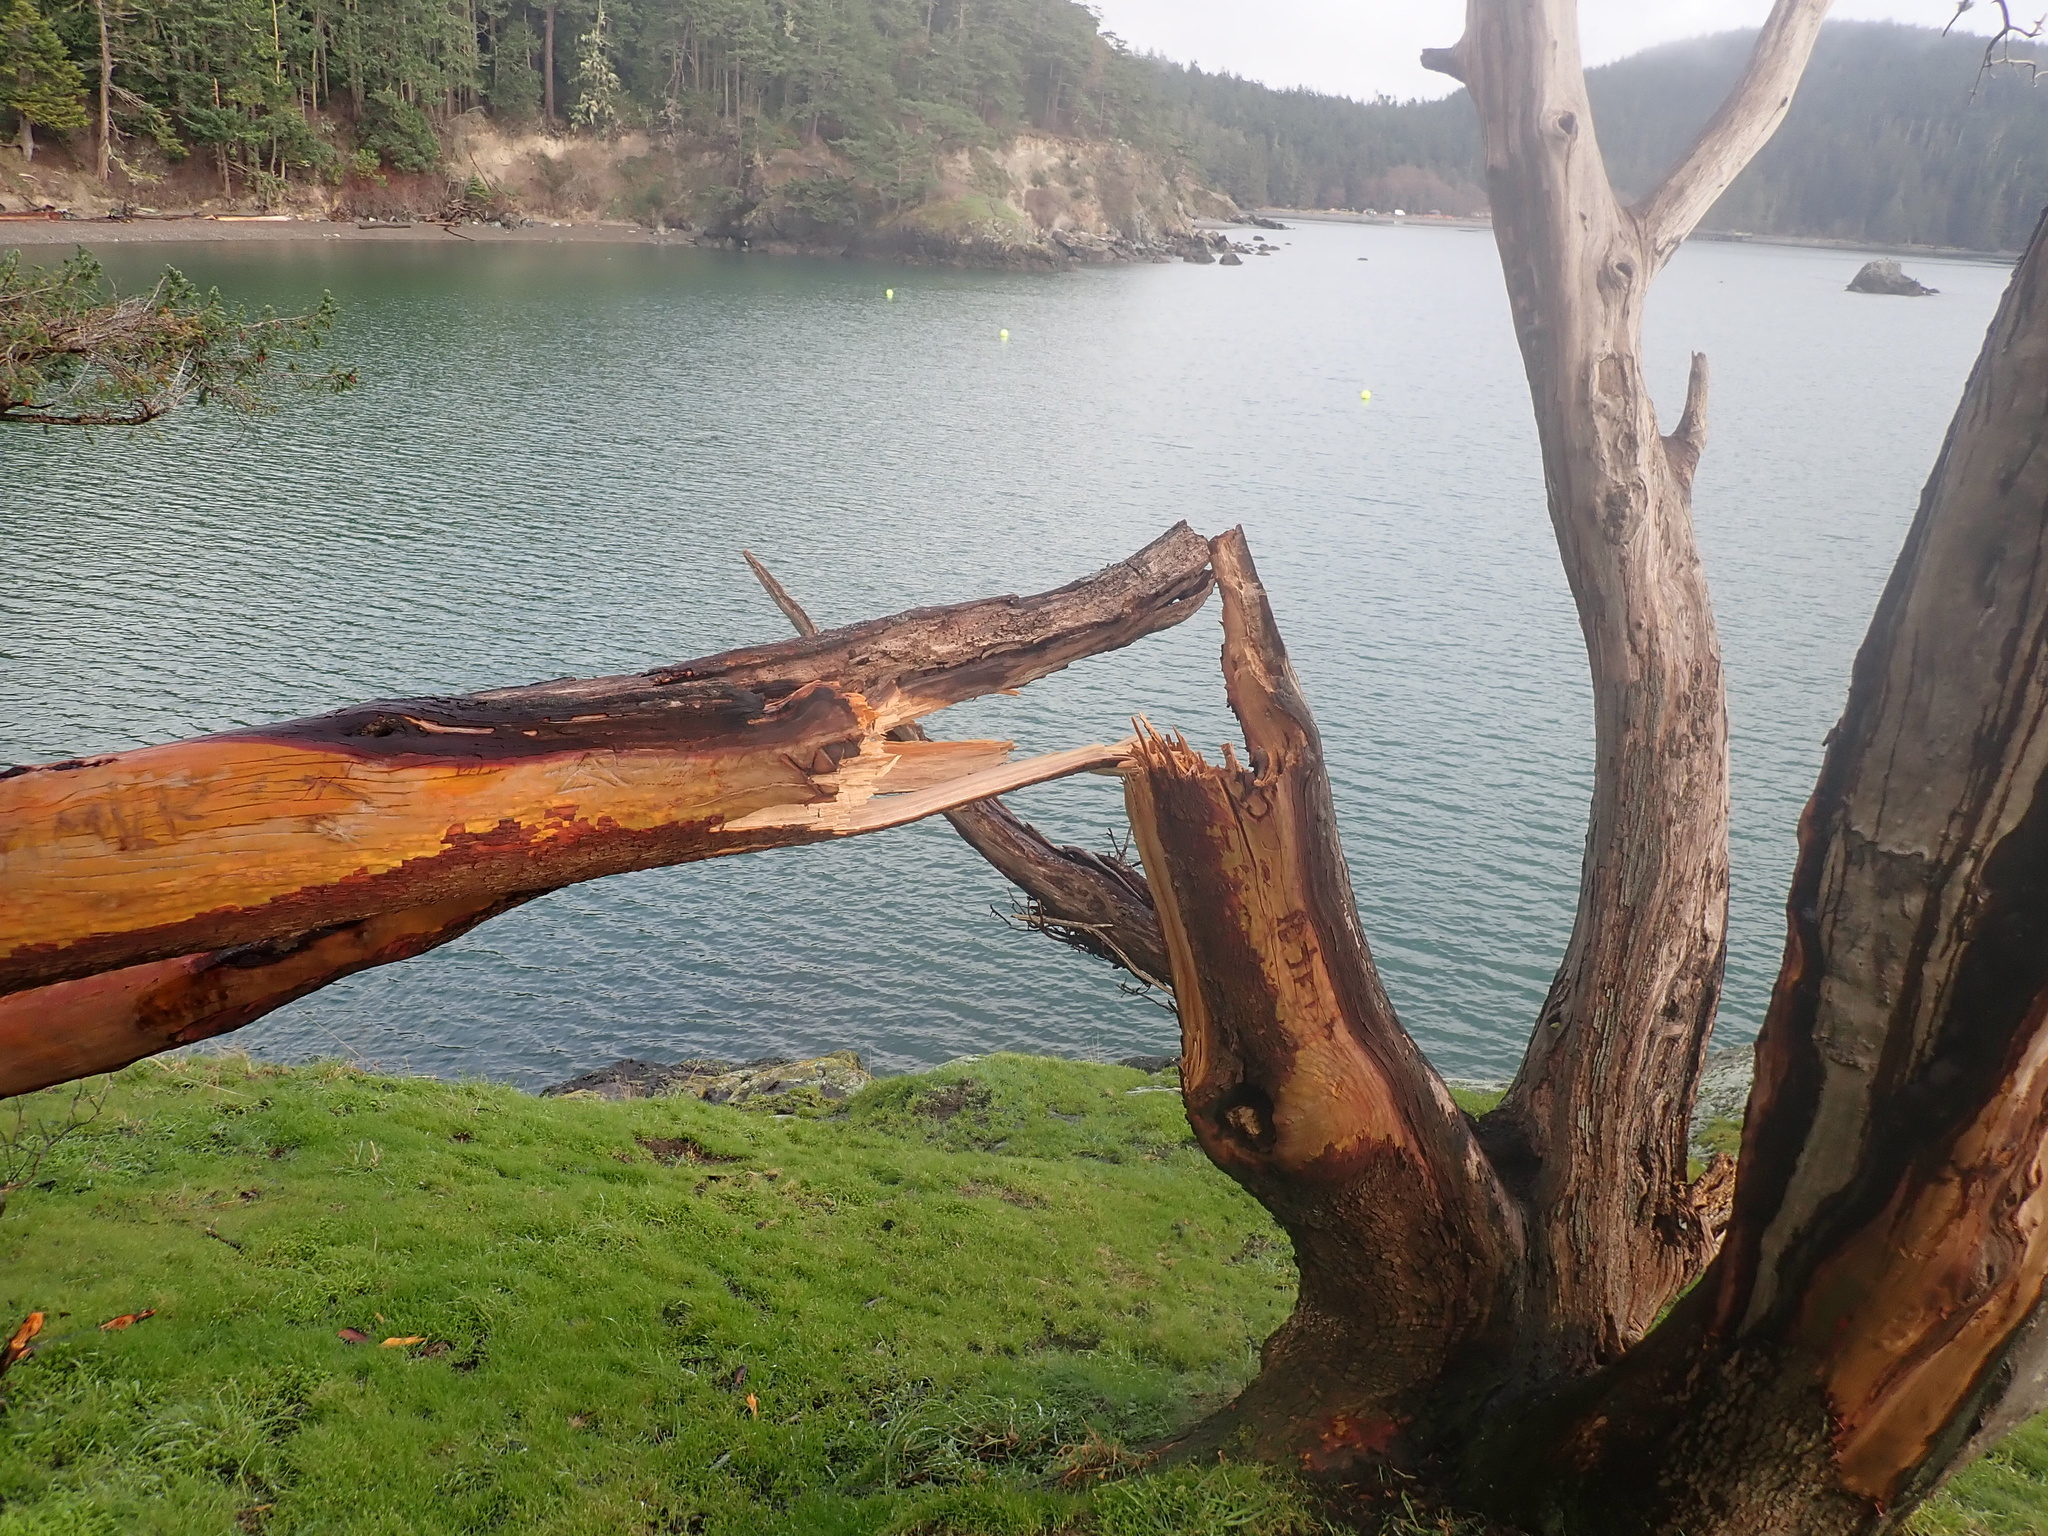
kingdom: Plantae
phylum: Tracheophyta
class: Magnoliopsida
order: Ericales
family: Ericaceae
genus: Arbutus
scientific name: Arbutus menziesii
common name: Pacific madrone
